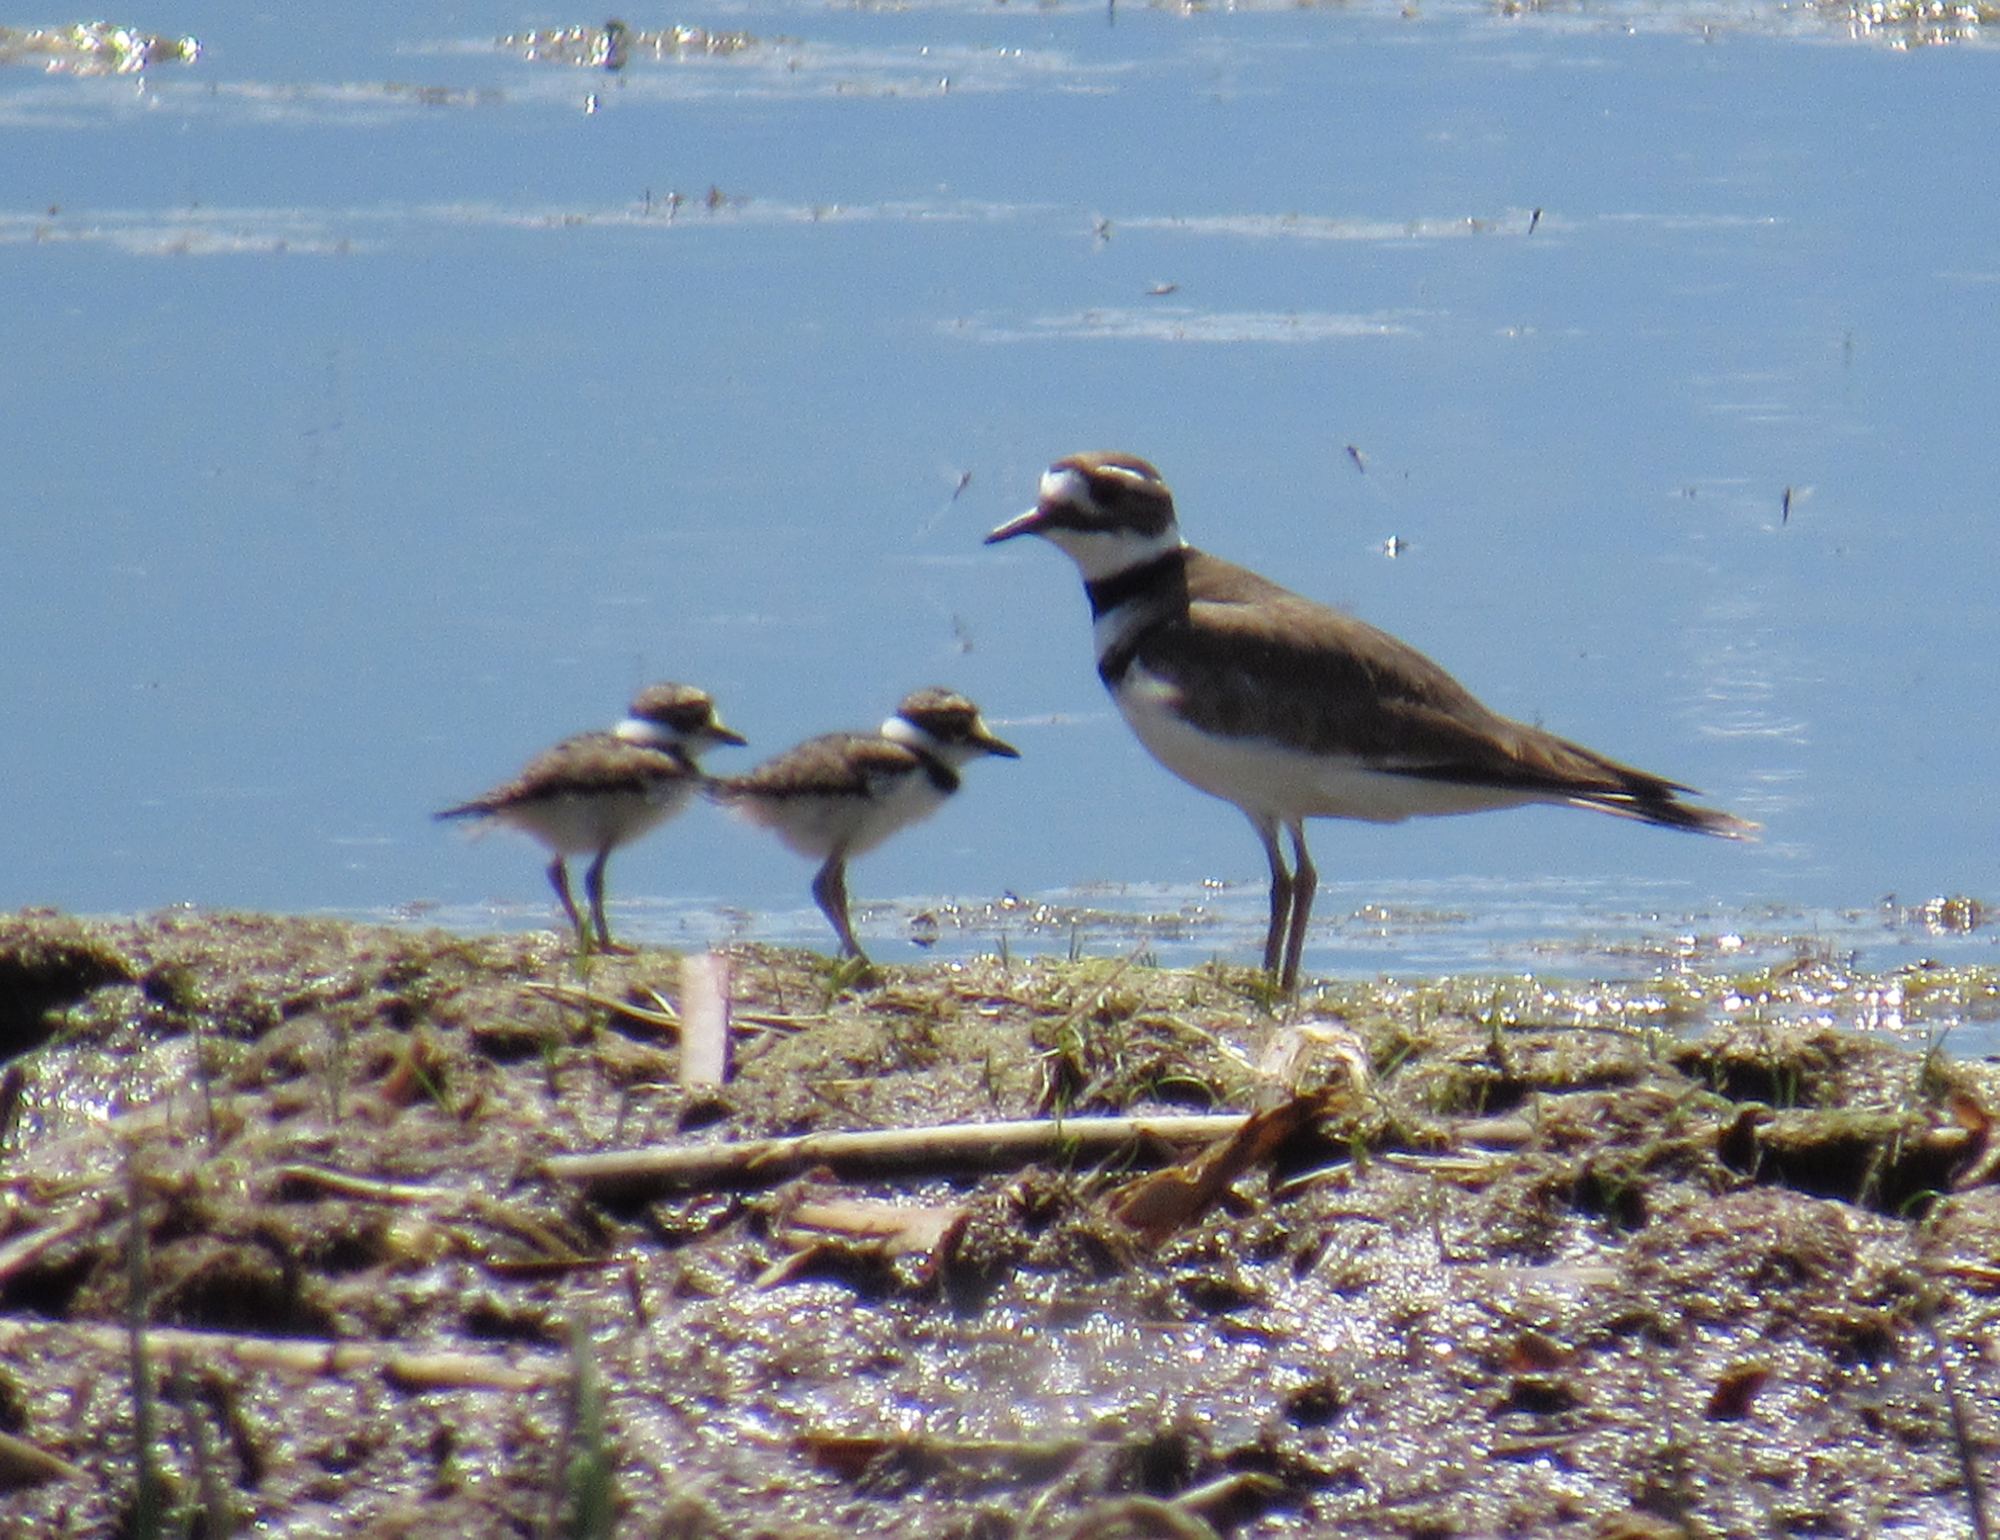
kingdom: Animalia
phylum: Chordata
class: Aves
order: Charadriiformes
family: Charadriidae
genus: Charadrius
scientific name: Charadrius vociferus
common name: Killdeer
